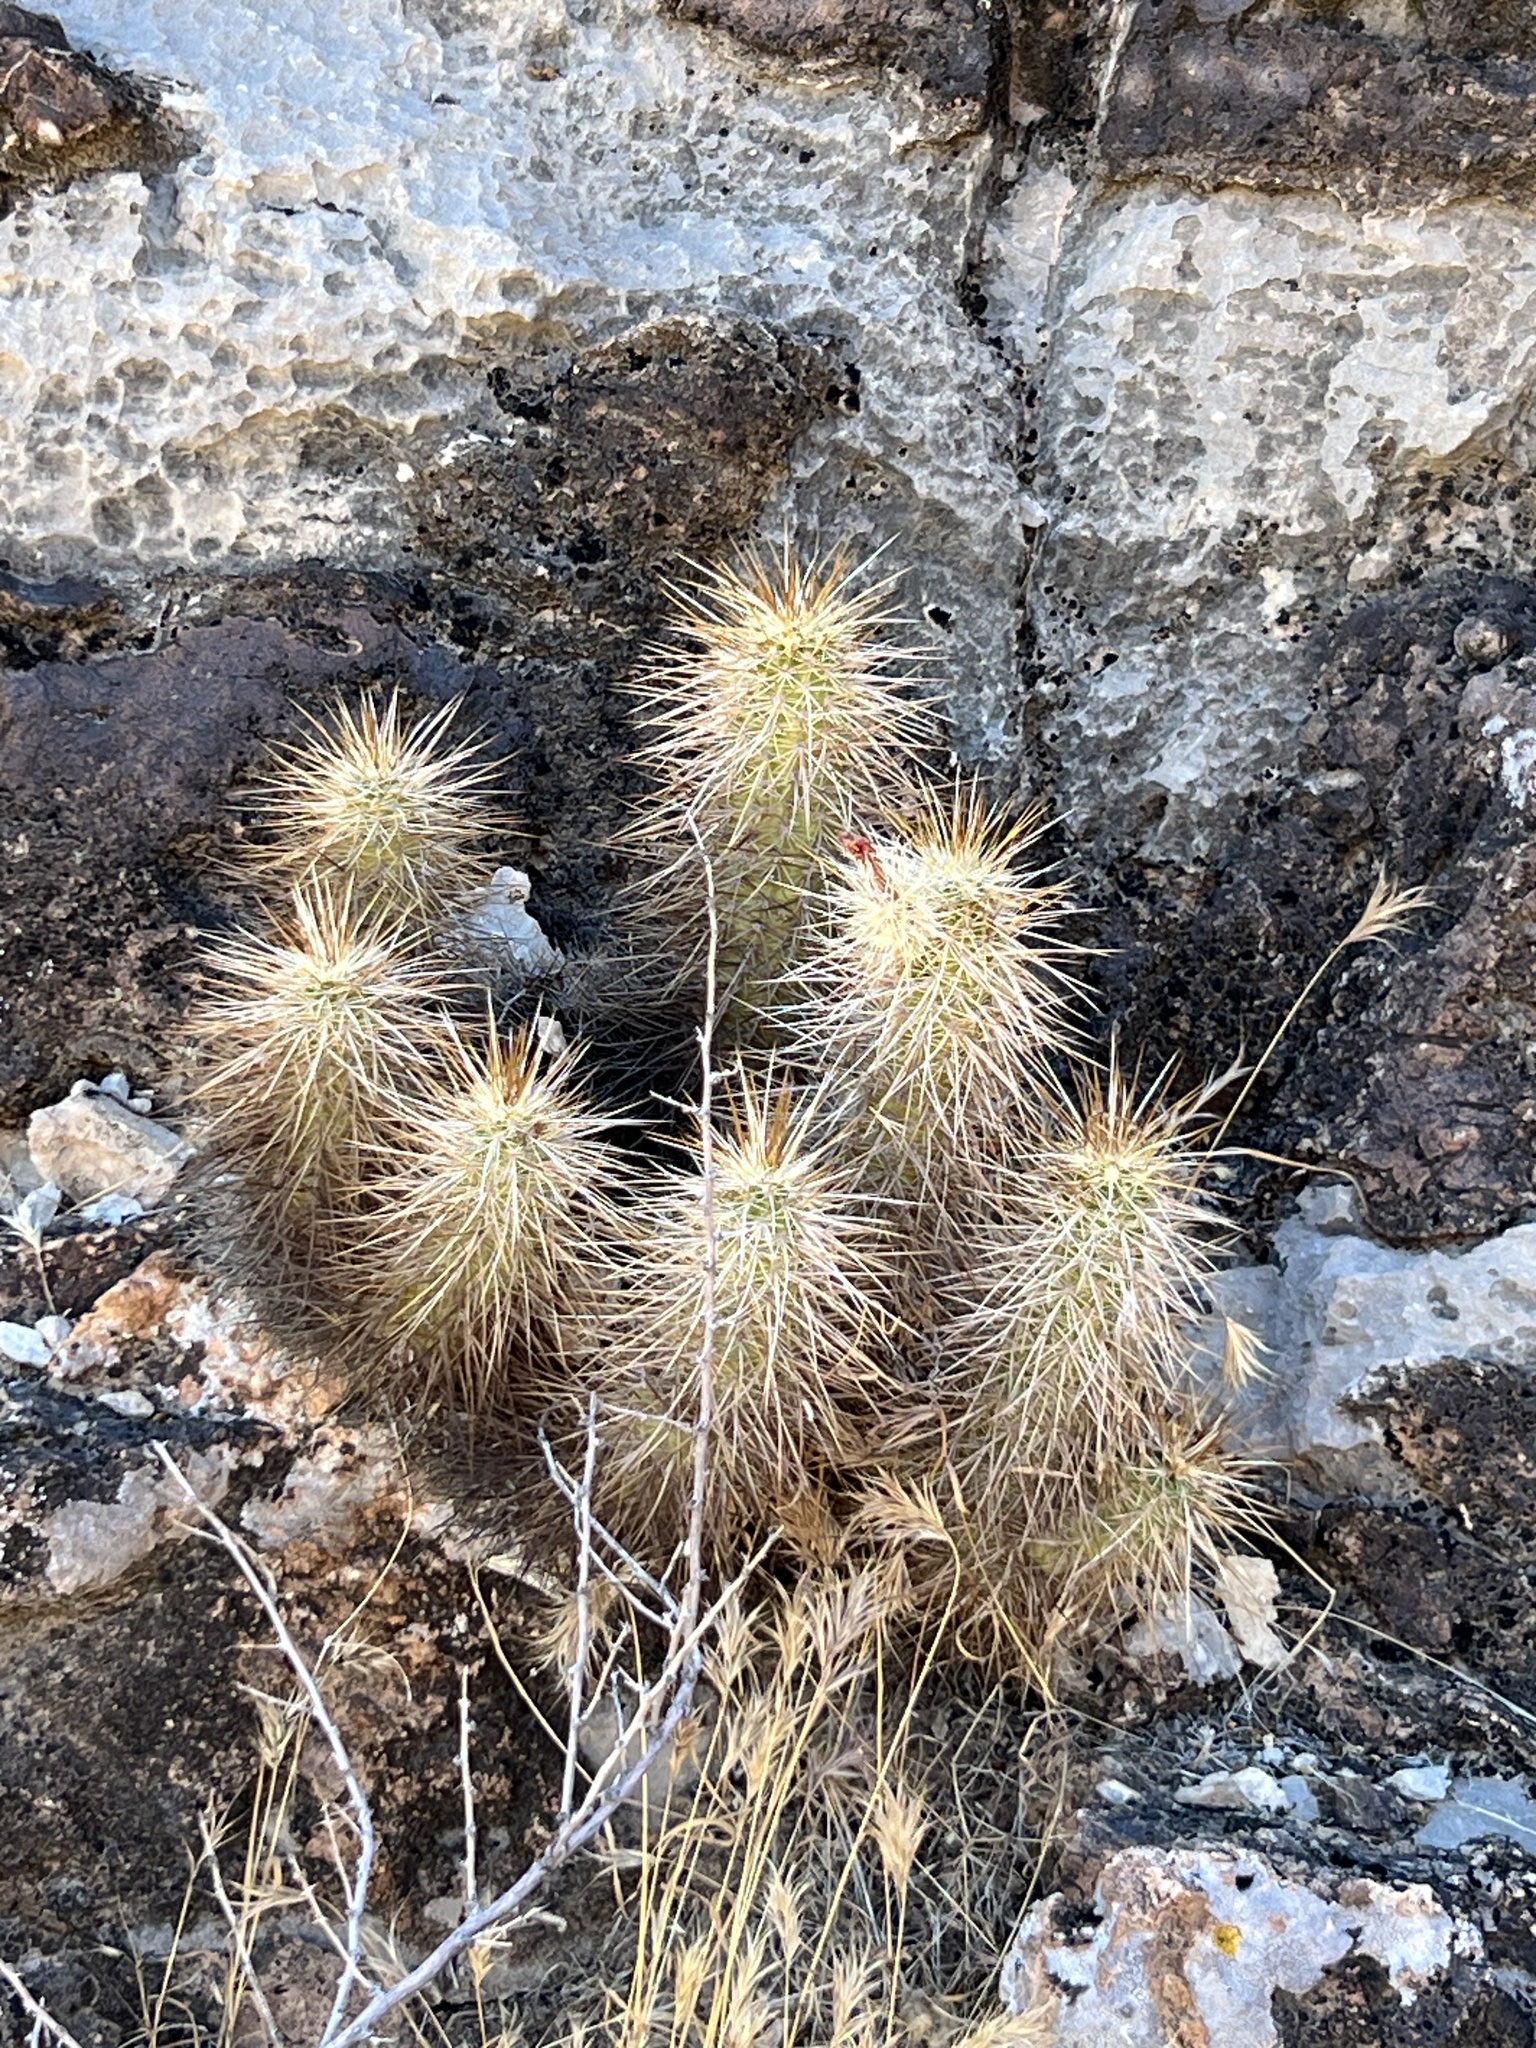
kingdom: Plantae
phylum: Tracheophyta
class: Magnoliopsida
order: Caryophyllales
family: Cactaceae
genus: Echinocereus
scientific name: Echinocereus engelmannii
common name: Engelmann's hedgehog cactus
